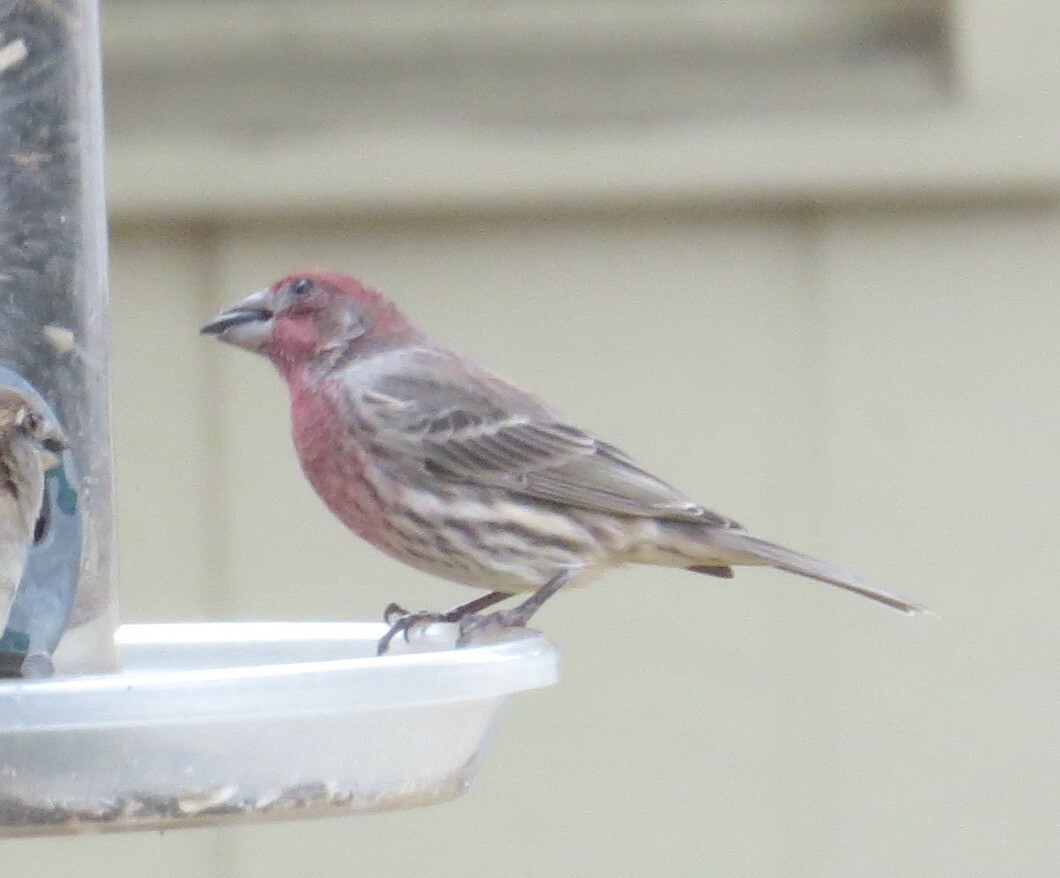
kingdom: Animalia
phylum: Chordata
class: Aves
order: Passeriformes
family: Fringillidae
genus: Haemorhous
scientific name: Haemorhous mexicanus
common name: House finch
